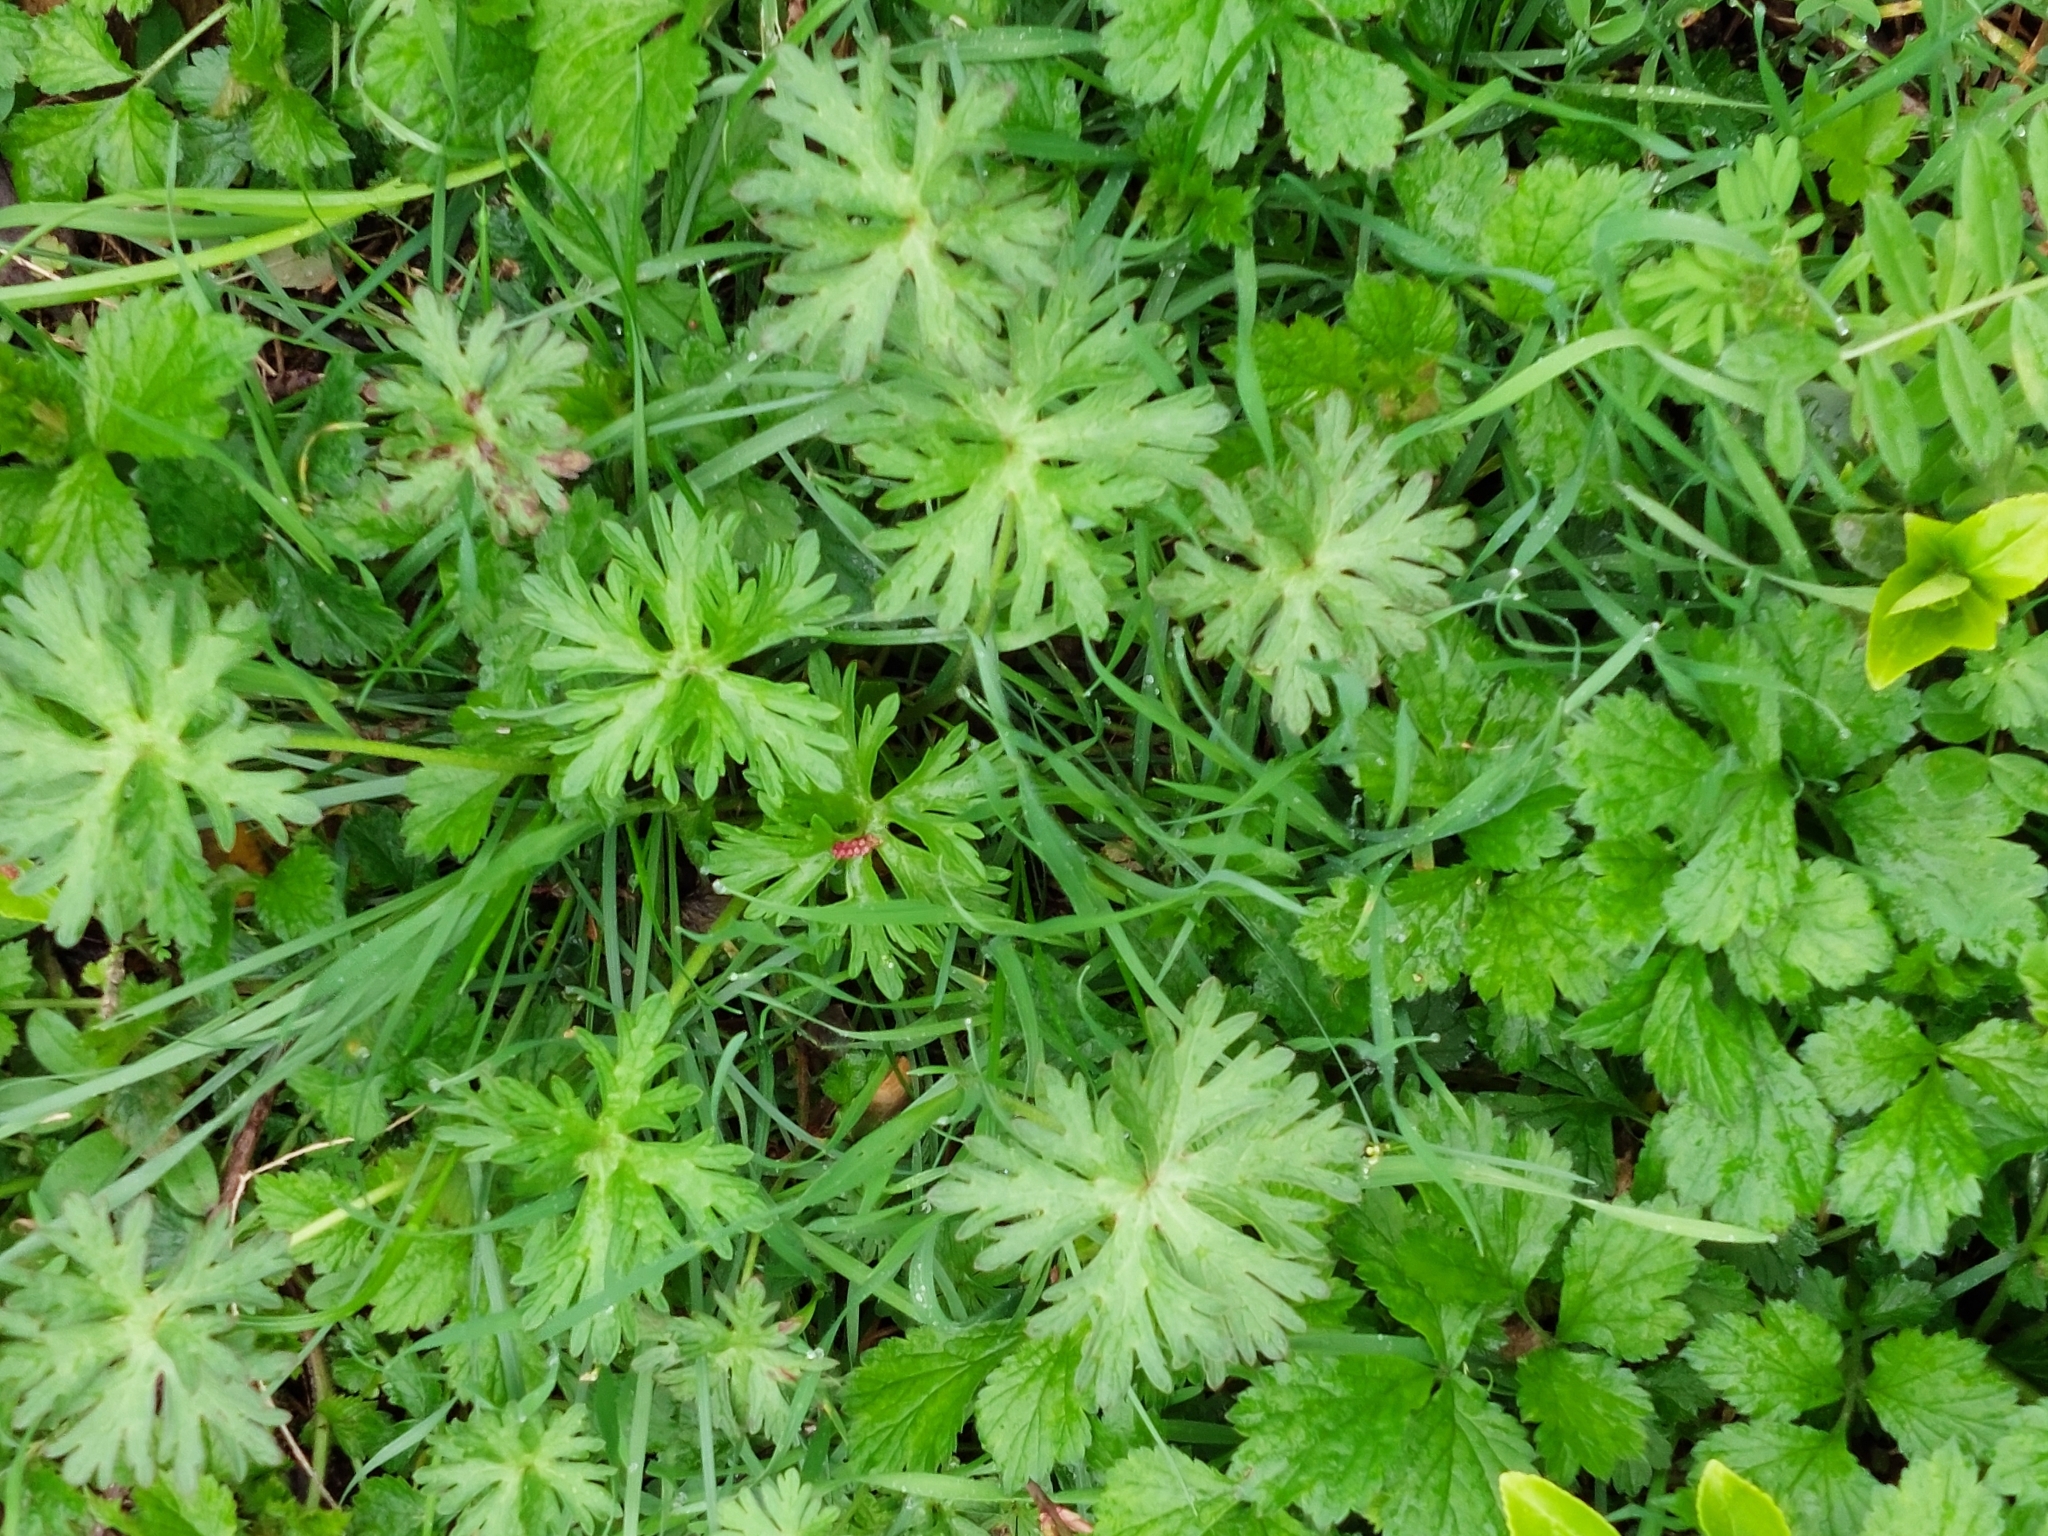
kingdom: Plantae
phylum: Tracheophyta
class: Magnoliopsida
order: Geraniales
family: Geraniaceae
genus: Geranium
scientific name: Geranium pratense
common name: Meadow crane's-bill
